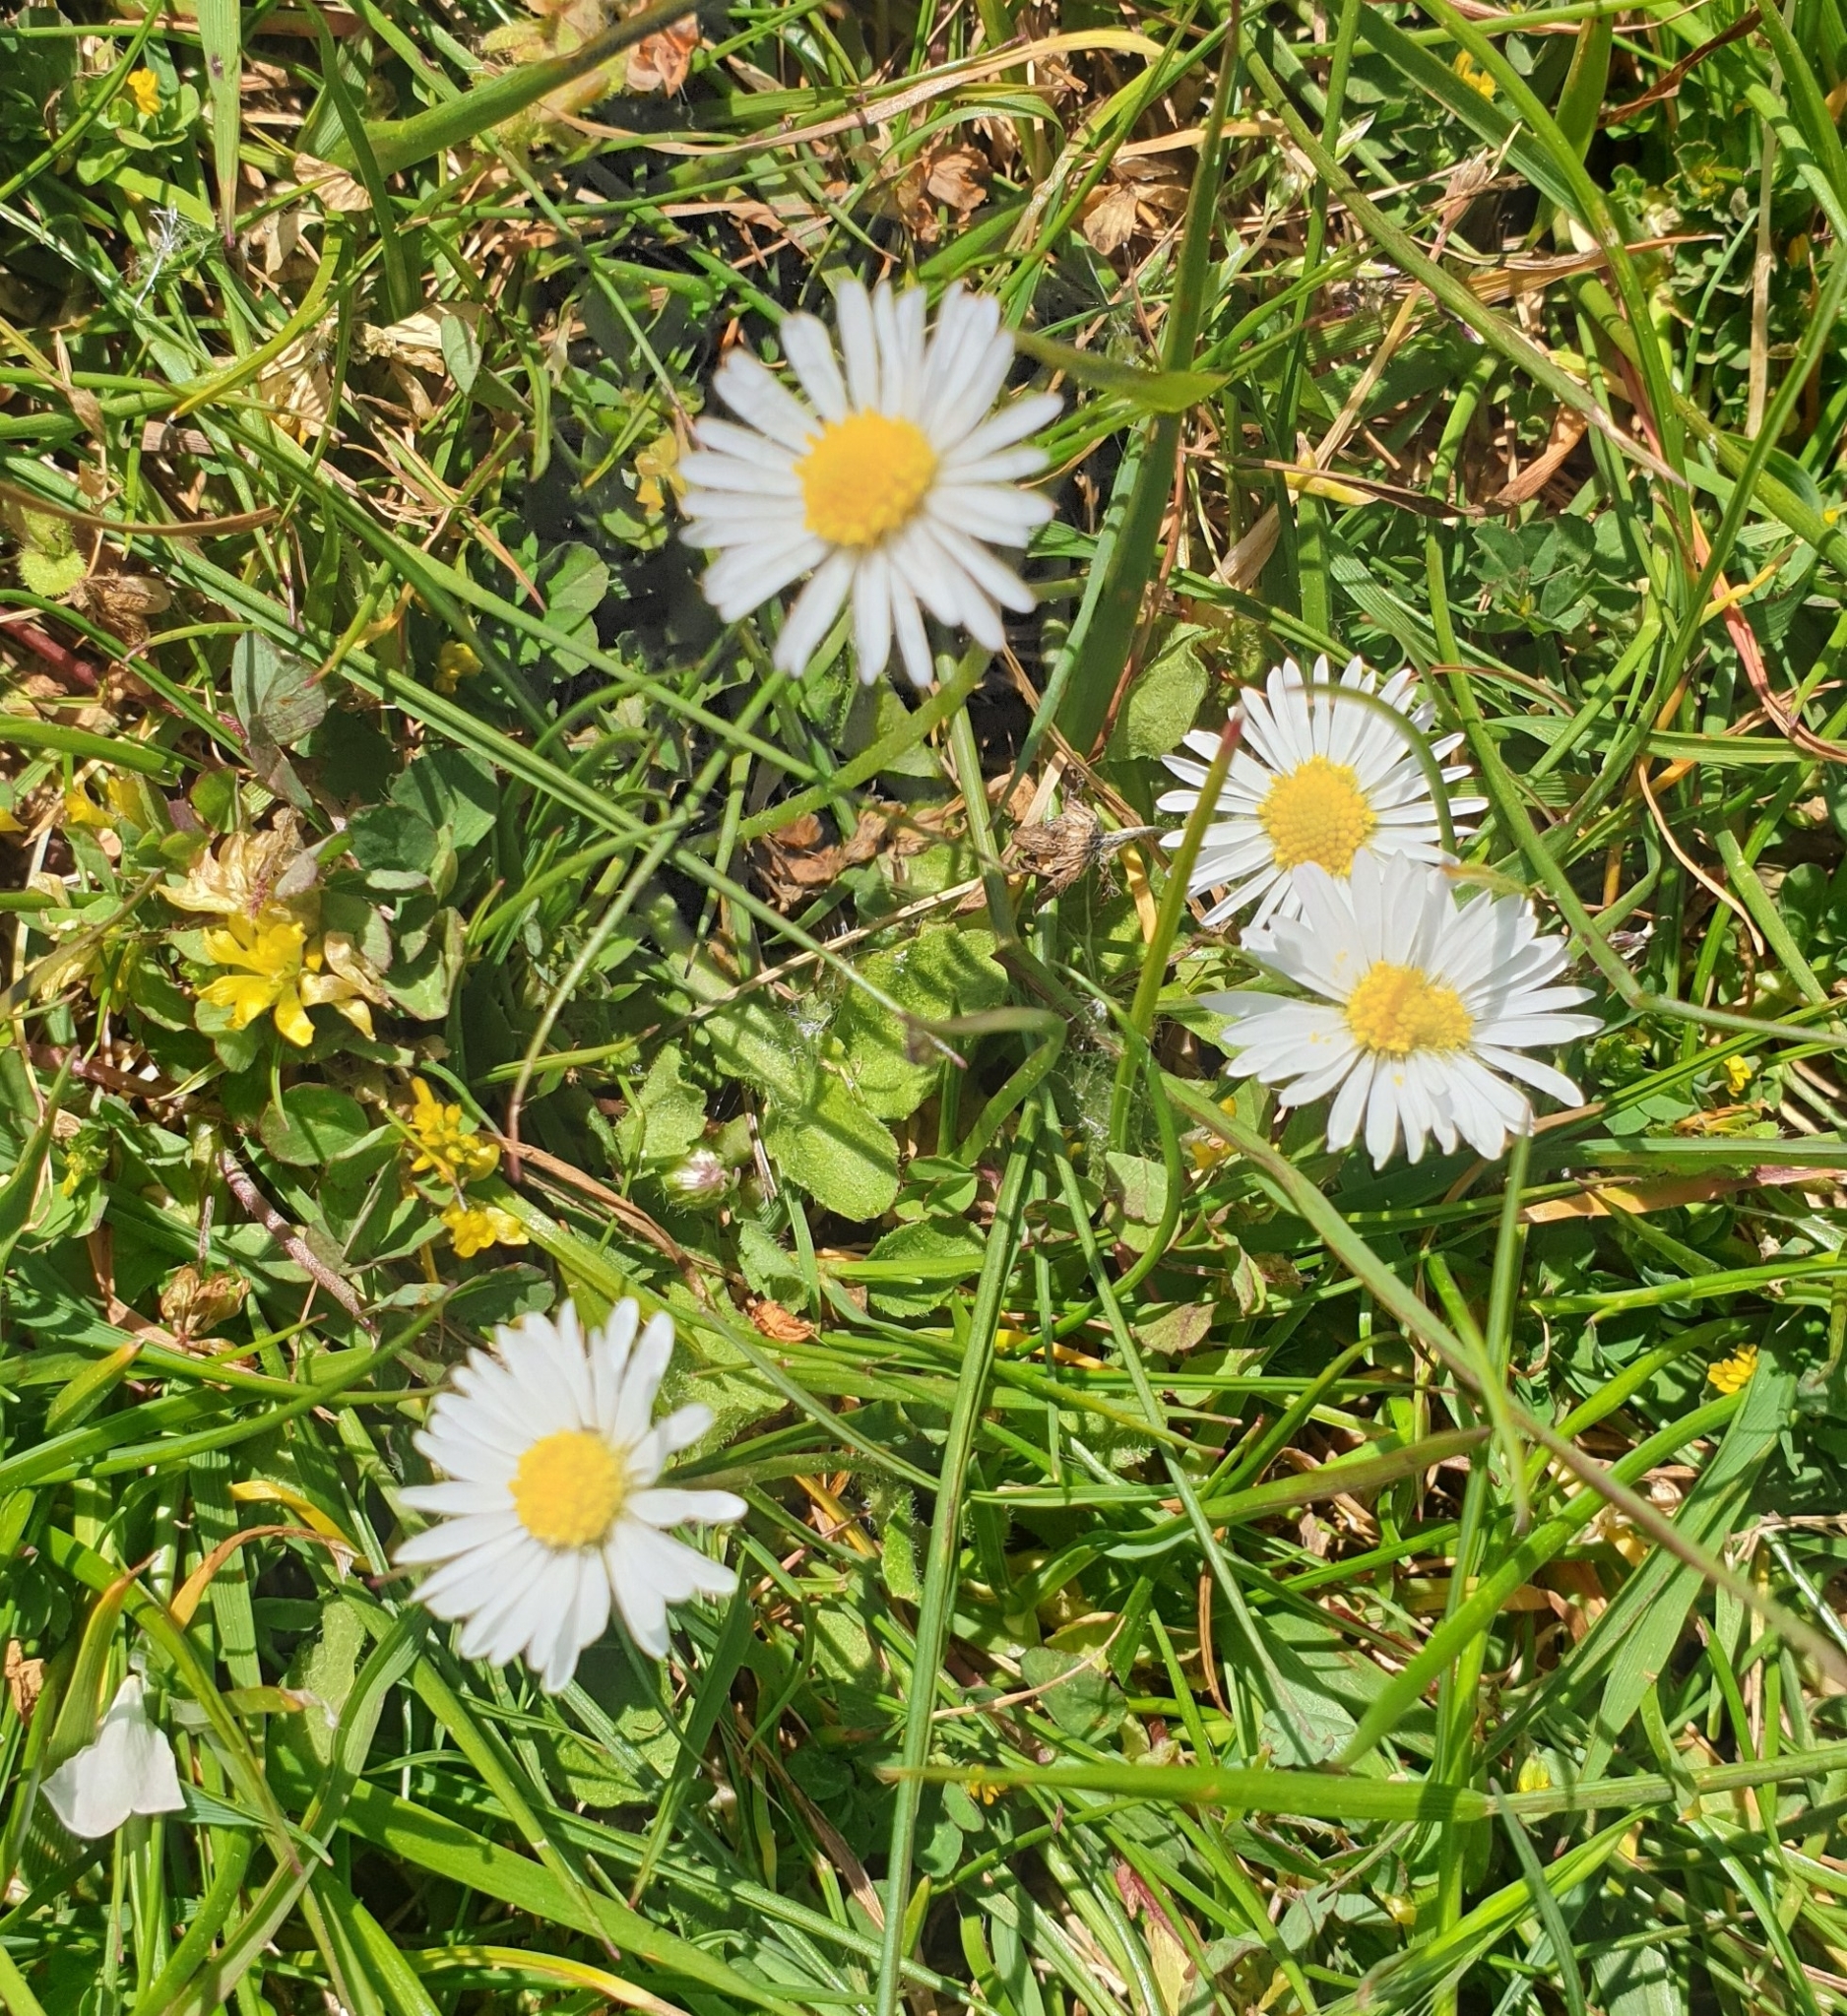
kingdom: Plantae
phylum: Tracheophyta
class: Magnoliopsida
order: Asterales
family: Asteraceae
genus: Bellis
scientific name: Bellis perennis
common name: Lawndaisy
